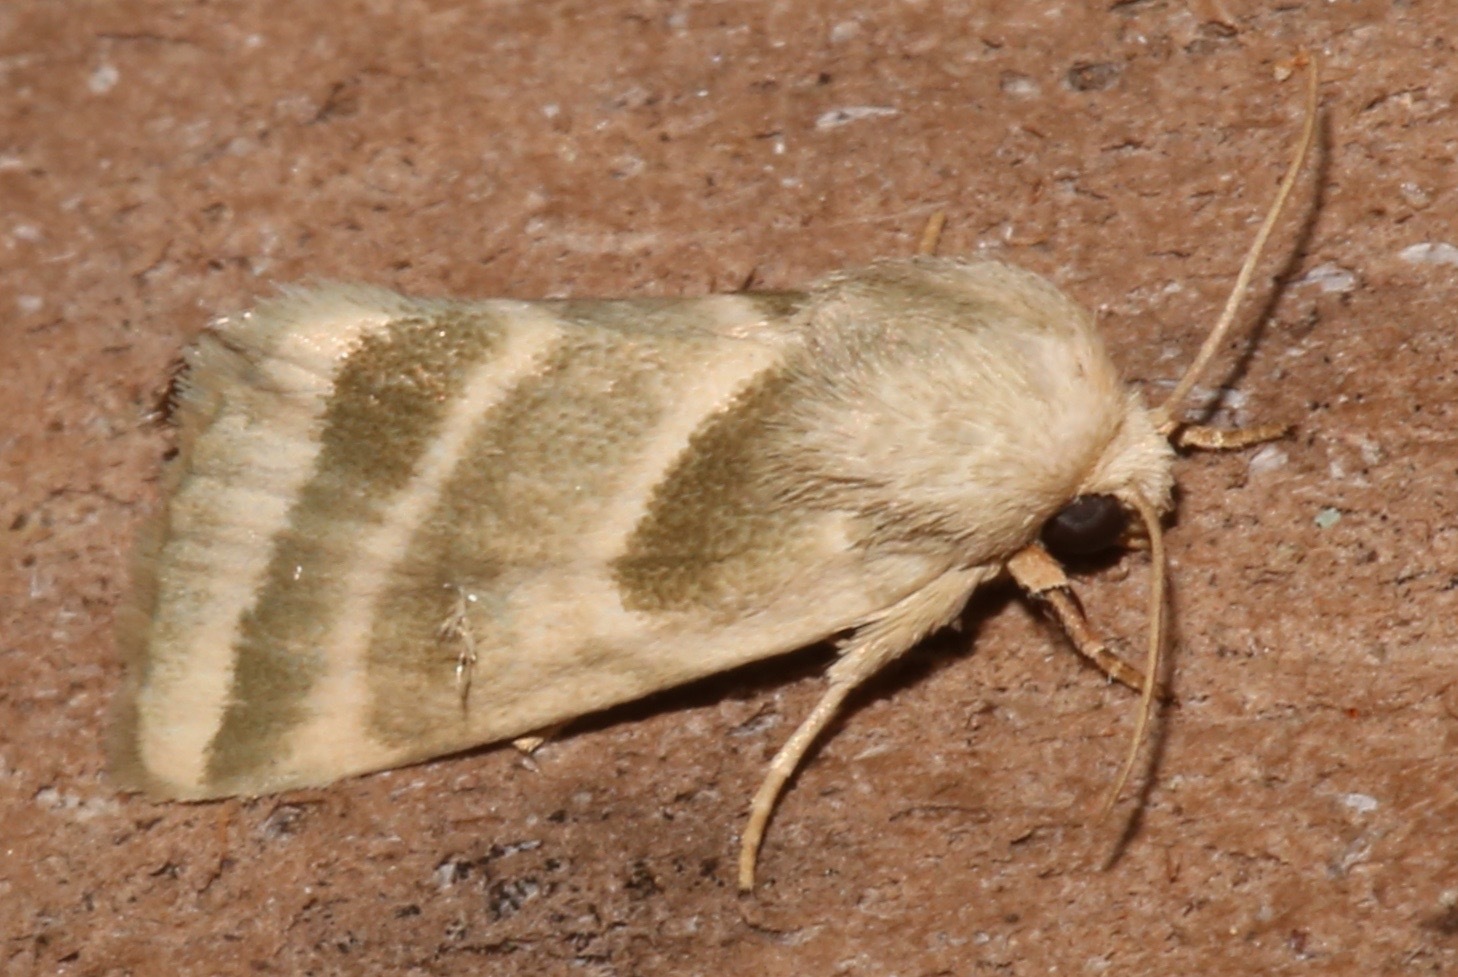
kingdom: Animalia
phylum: Arthropoda
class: Insecta
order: Lepidoptera
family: Noctuidae
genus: Schinia
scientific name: Schinia trifascia
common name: Three-lined flower moth
